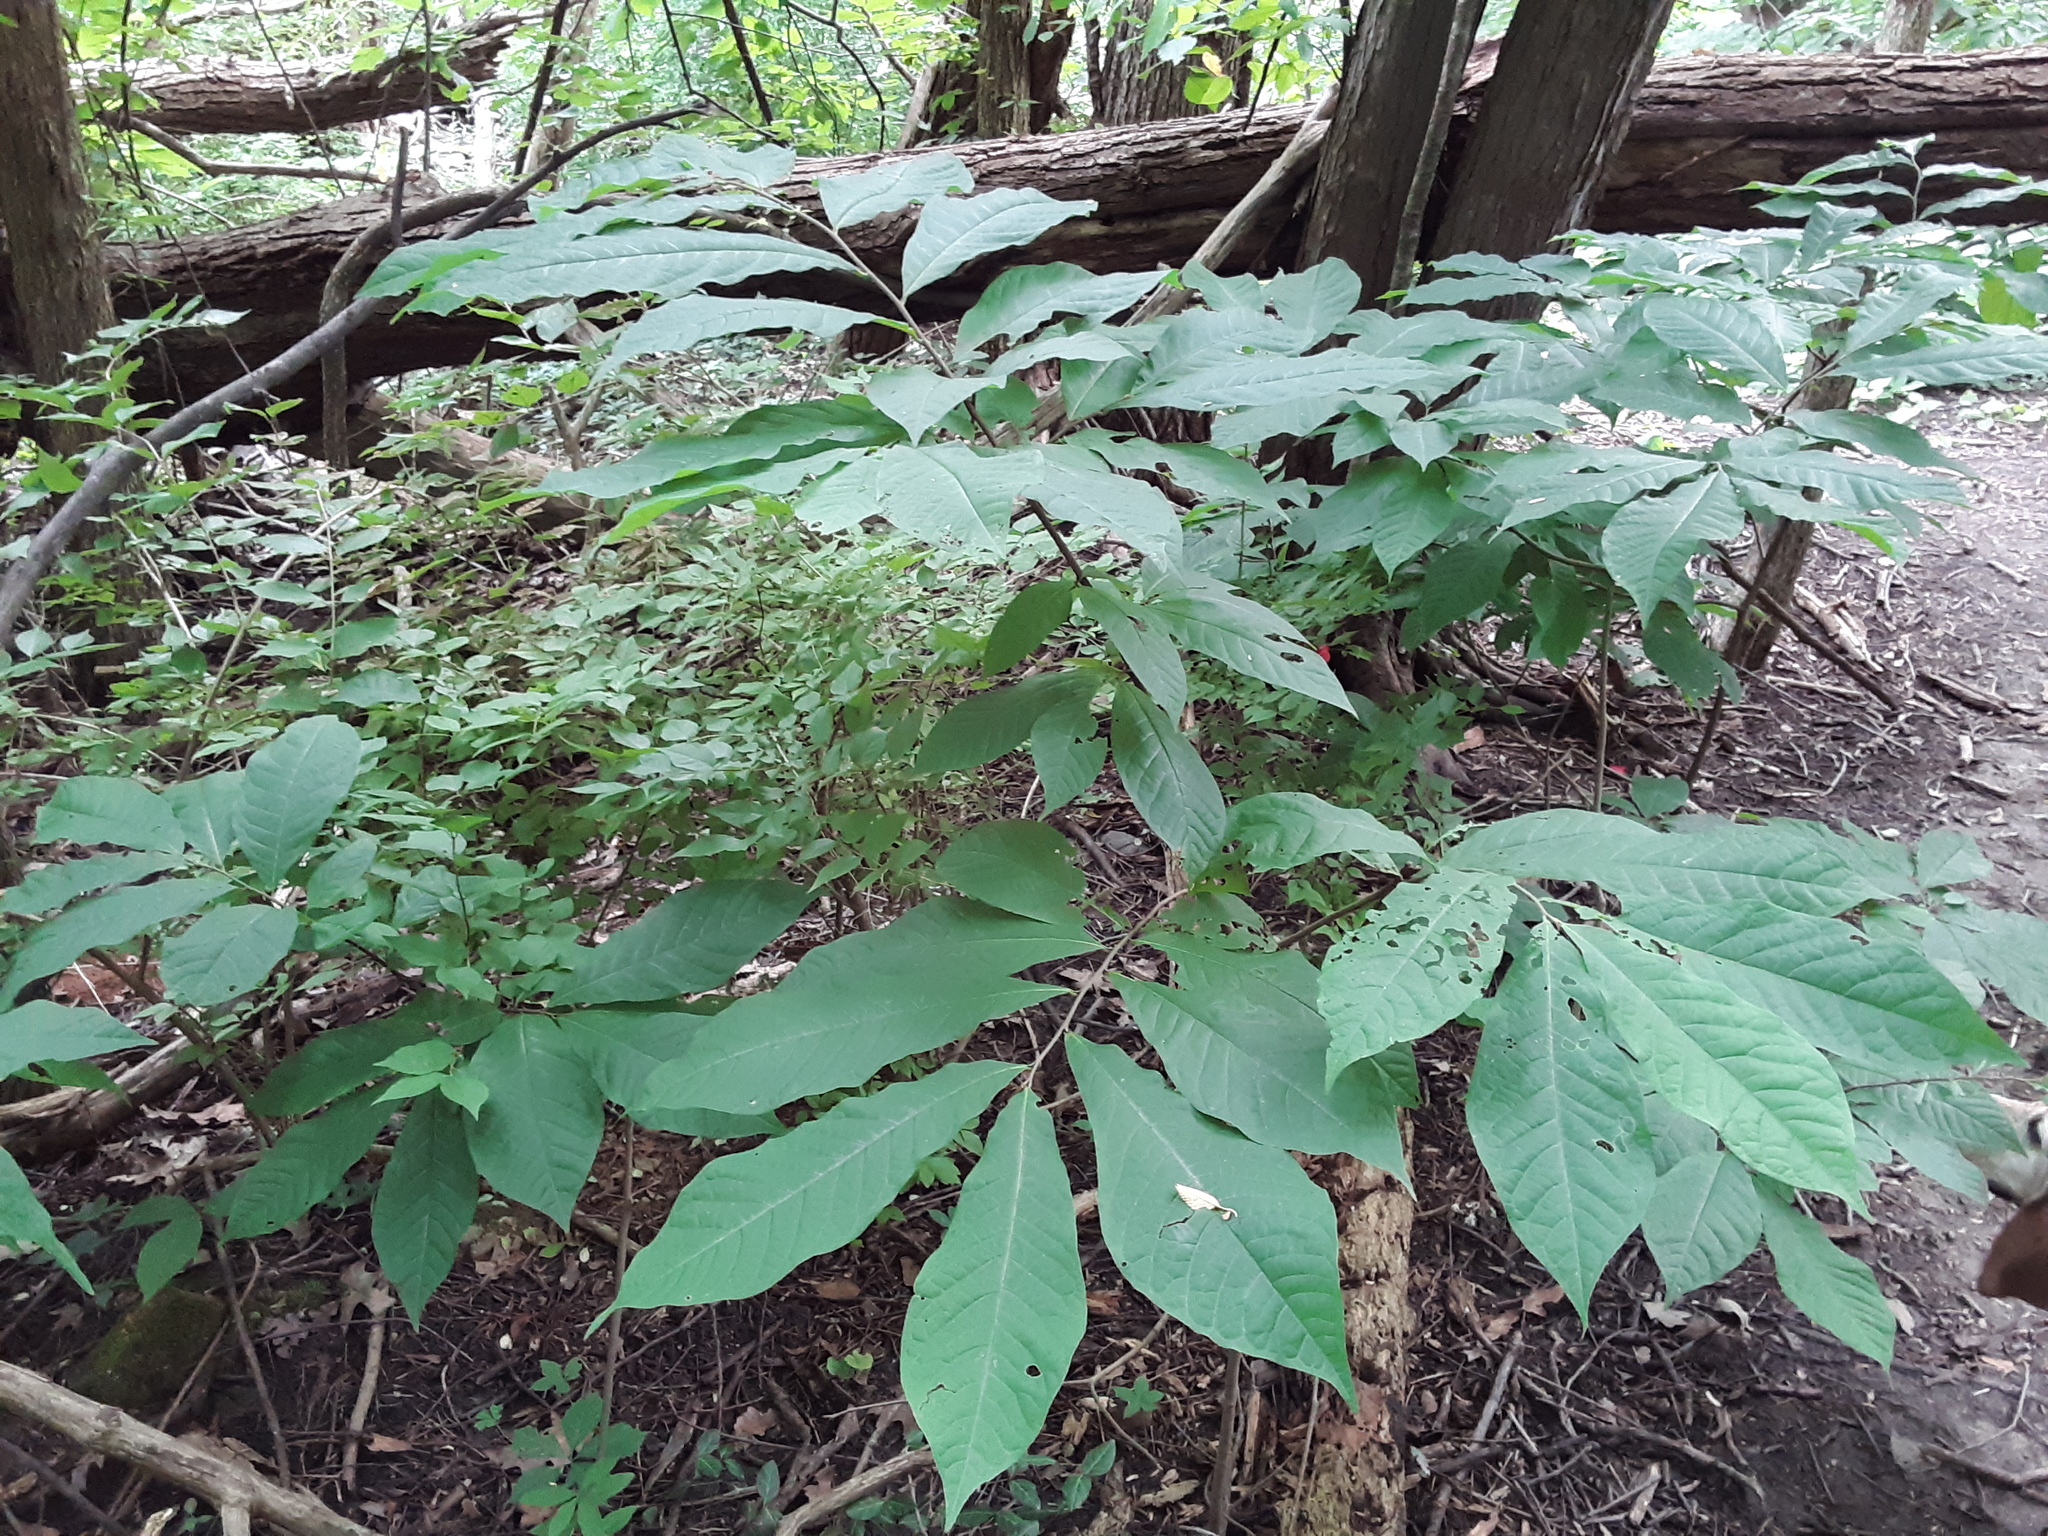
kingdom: Plantae
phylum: Tracheophyta
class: Magnoliopsida
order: Magnoliales
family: Annonaceae
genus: Asimina
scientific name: Asimina triloba
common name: Dog-banana
